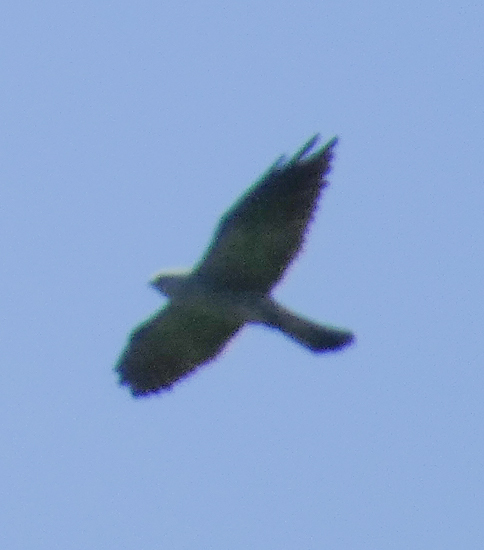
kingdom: Animalia
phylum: Chordata
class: Aves
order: Accipitriformes
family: Accipitridae
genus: Ictinia
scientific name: Ictinia mississippiensis
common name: Mississippi kite
